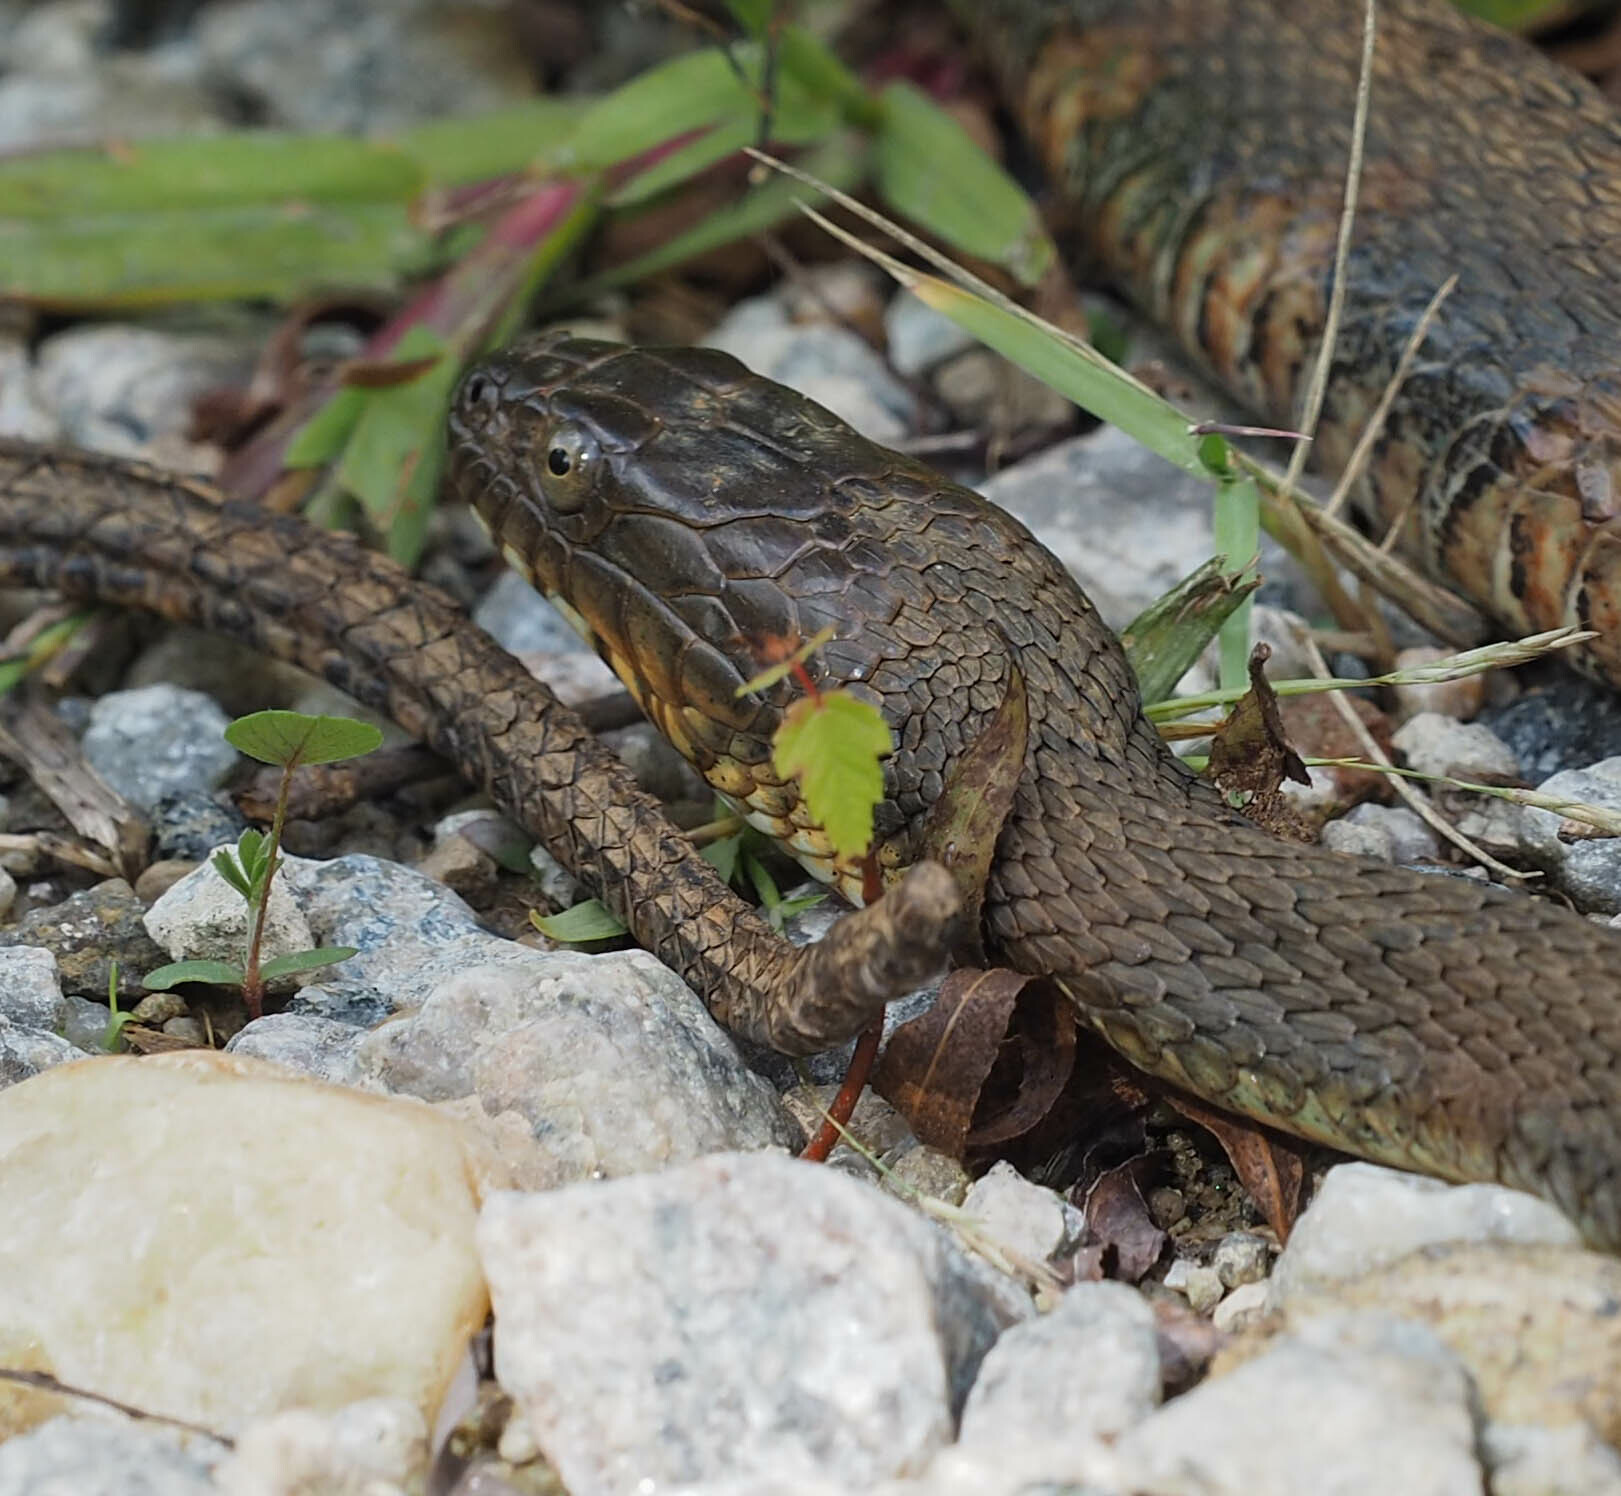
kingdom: Animalia
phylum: Chordata
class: Squamata
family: Colubridae
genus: Nerodia
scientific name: Nerodia sipedon
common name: Northern water snake
